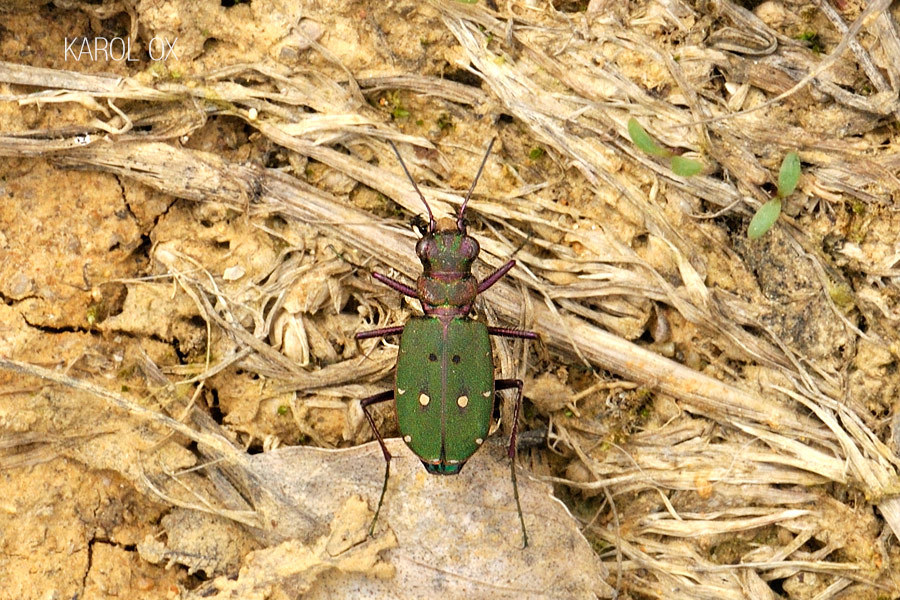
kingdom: Animalia
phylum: Arthropoda
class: Insecta
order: Coleoptera
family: Carabidae
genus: Cicindela
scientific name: Cicindela campestris
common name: Common tiger beetle
